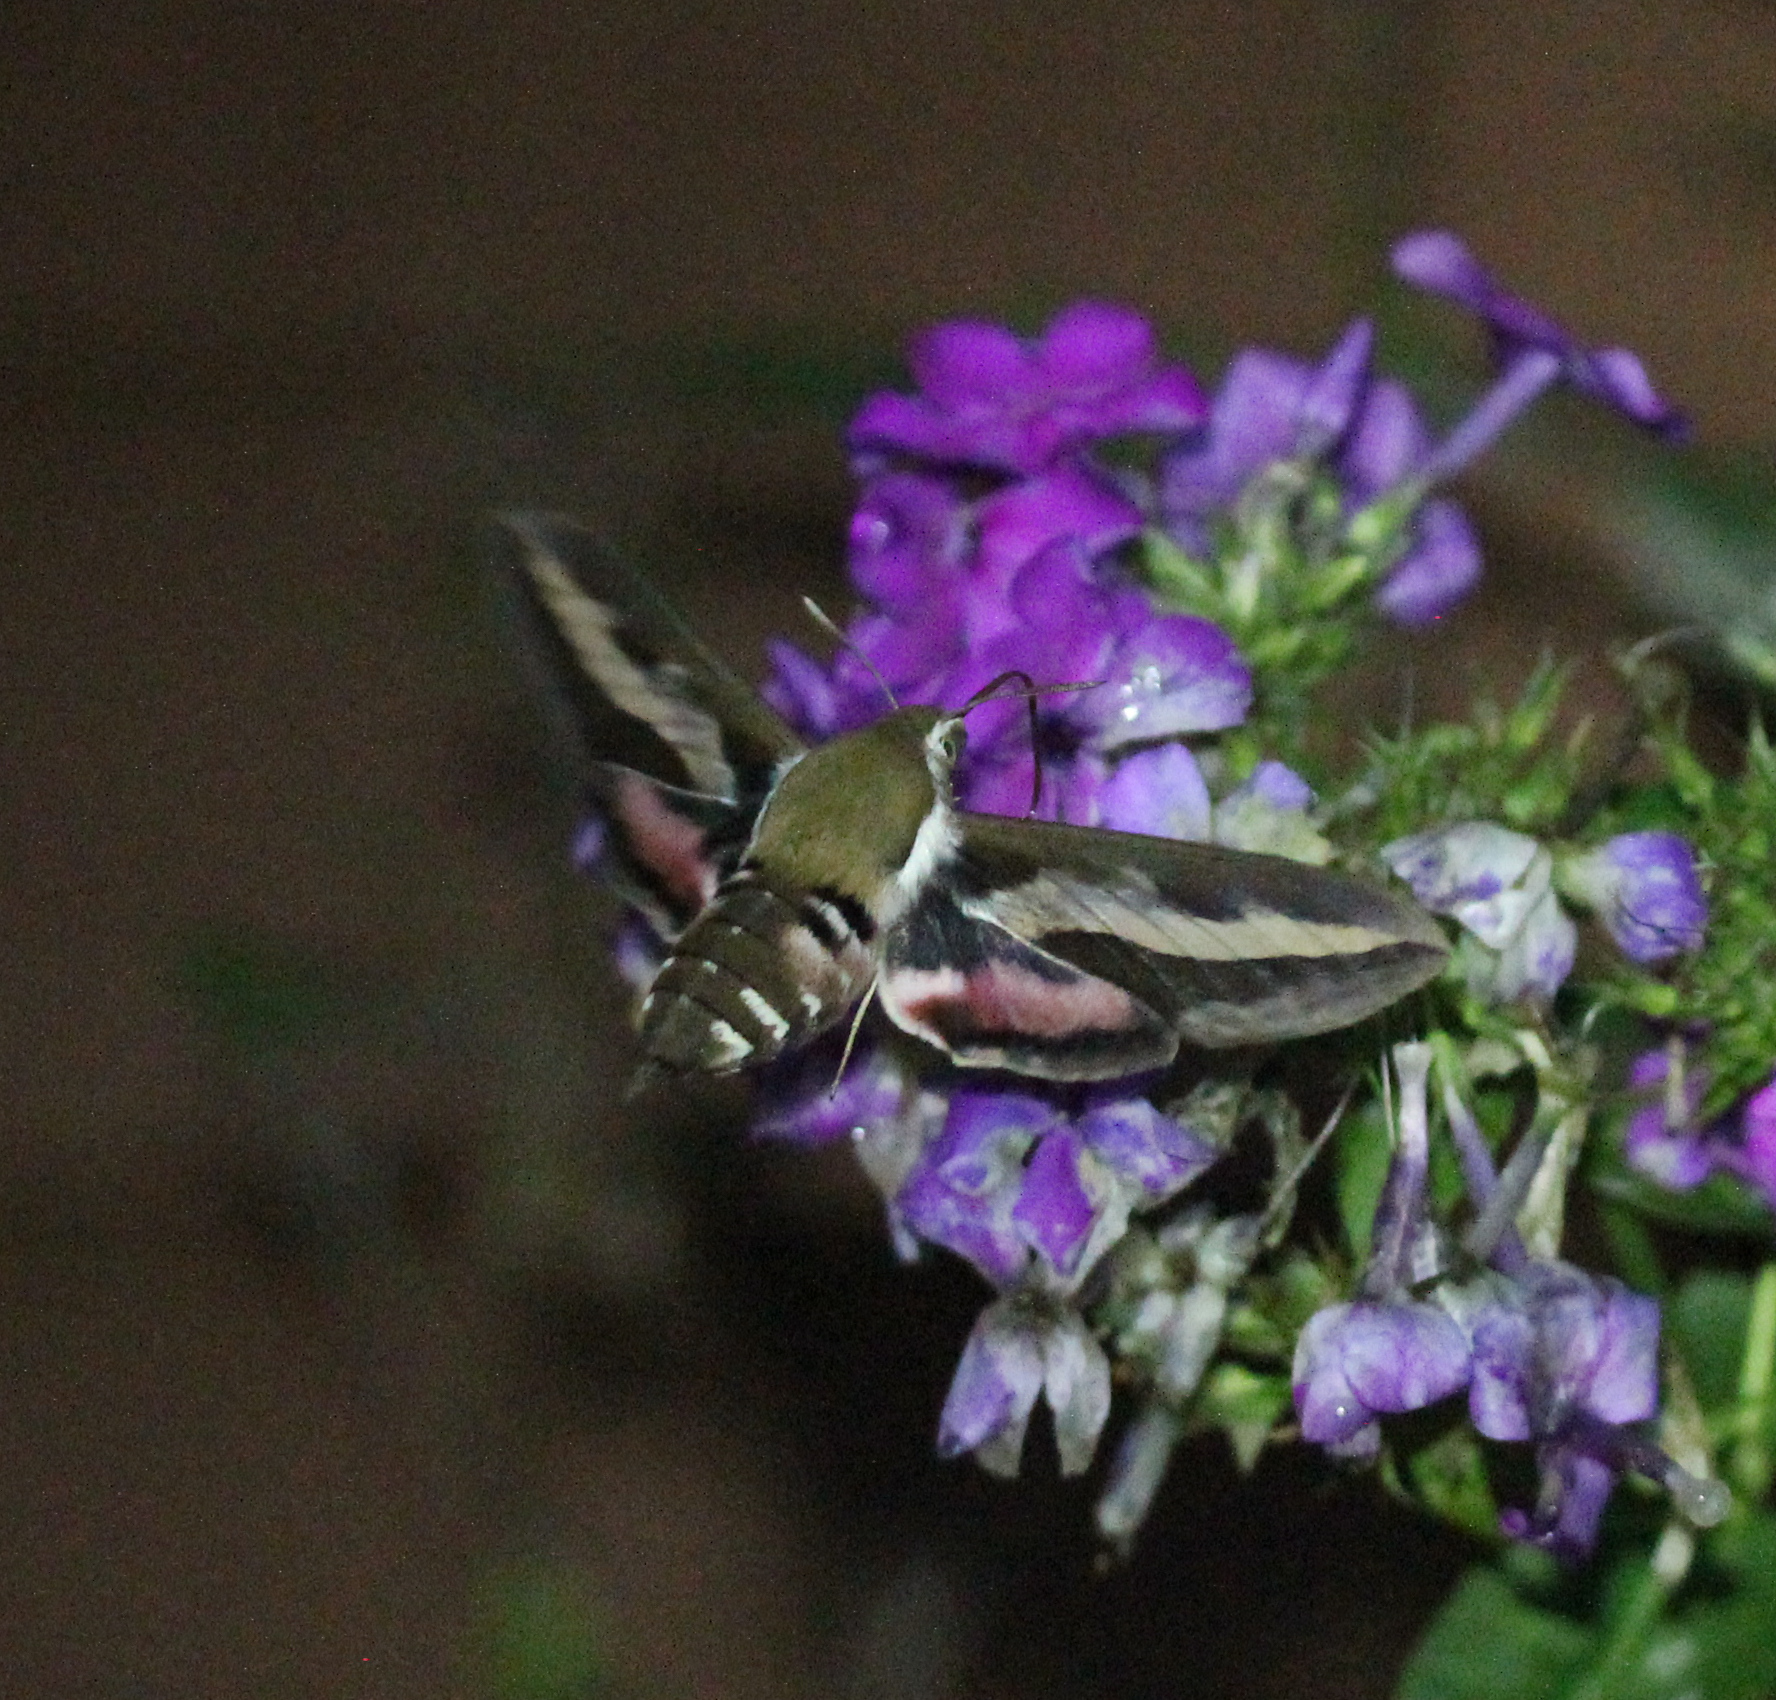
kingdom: Animalia
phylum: Arthropoda
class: Insecta
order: Lepidoptera
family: Sphingidae
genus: Hyles
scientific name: Hyles gallii
